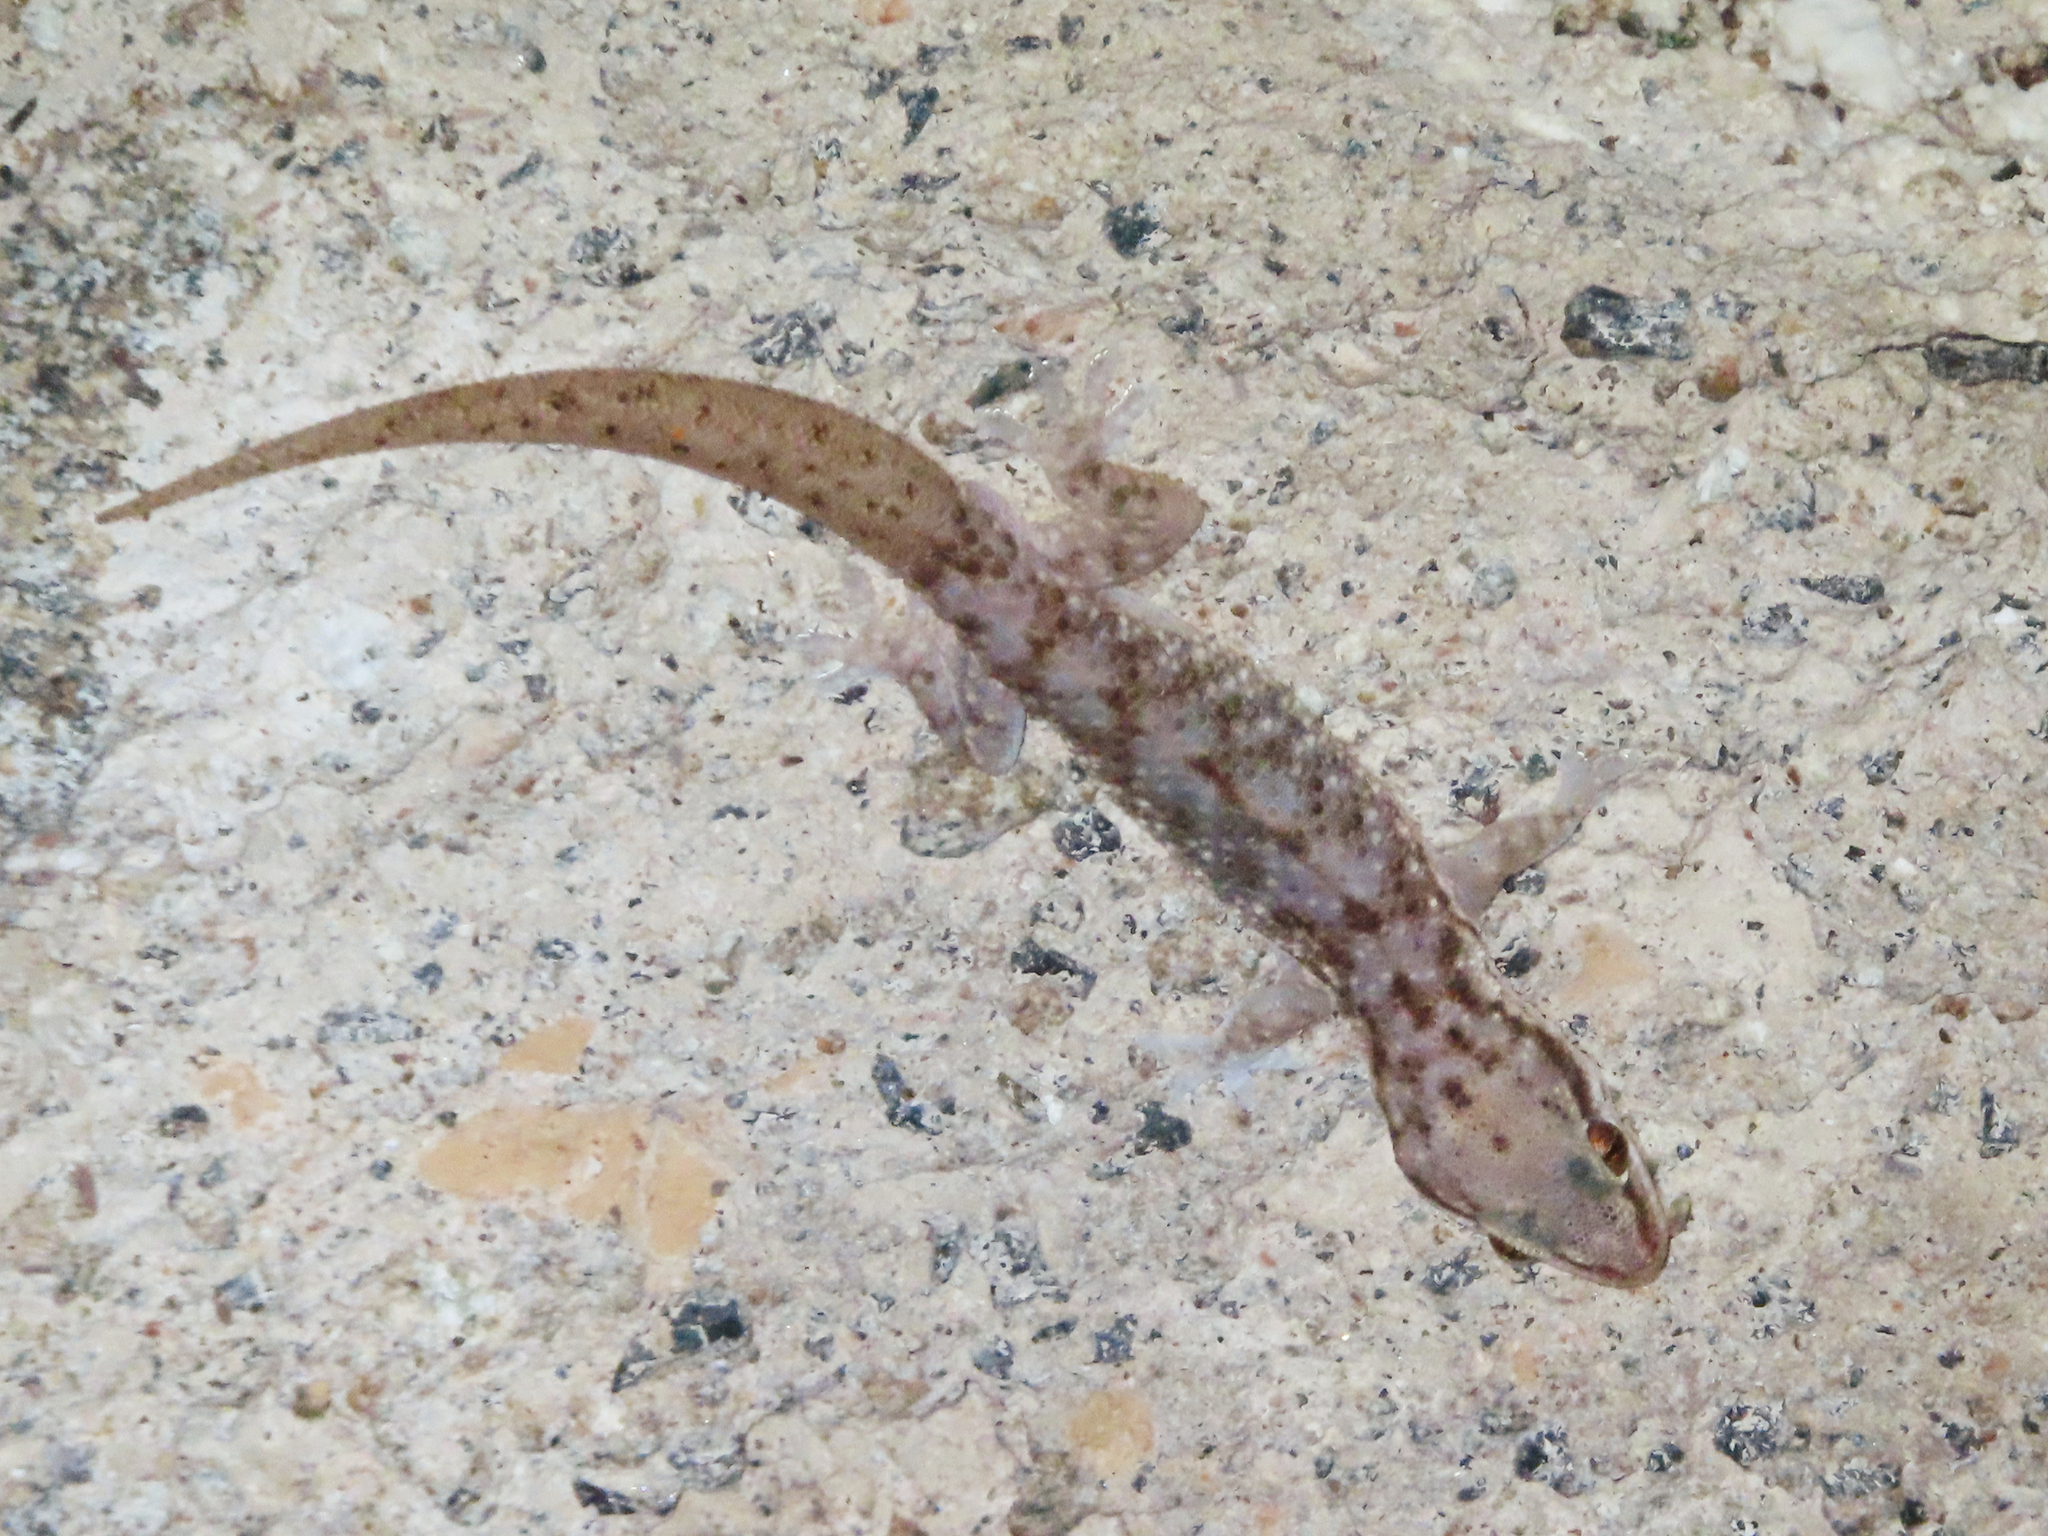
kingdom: Animalia
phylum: Chordata
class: Squamata
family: Gekkonidae
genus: Hemidactylus
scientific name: Hemidactylus robustus
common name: Heyden’s gecko
